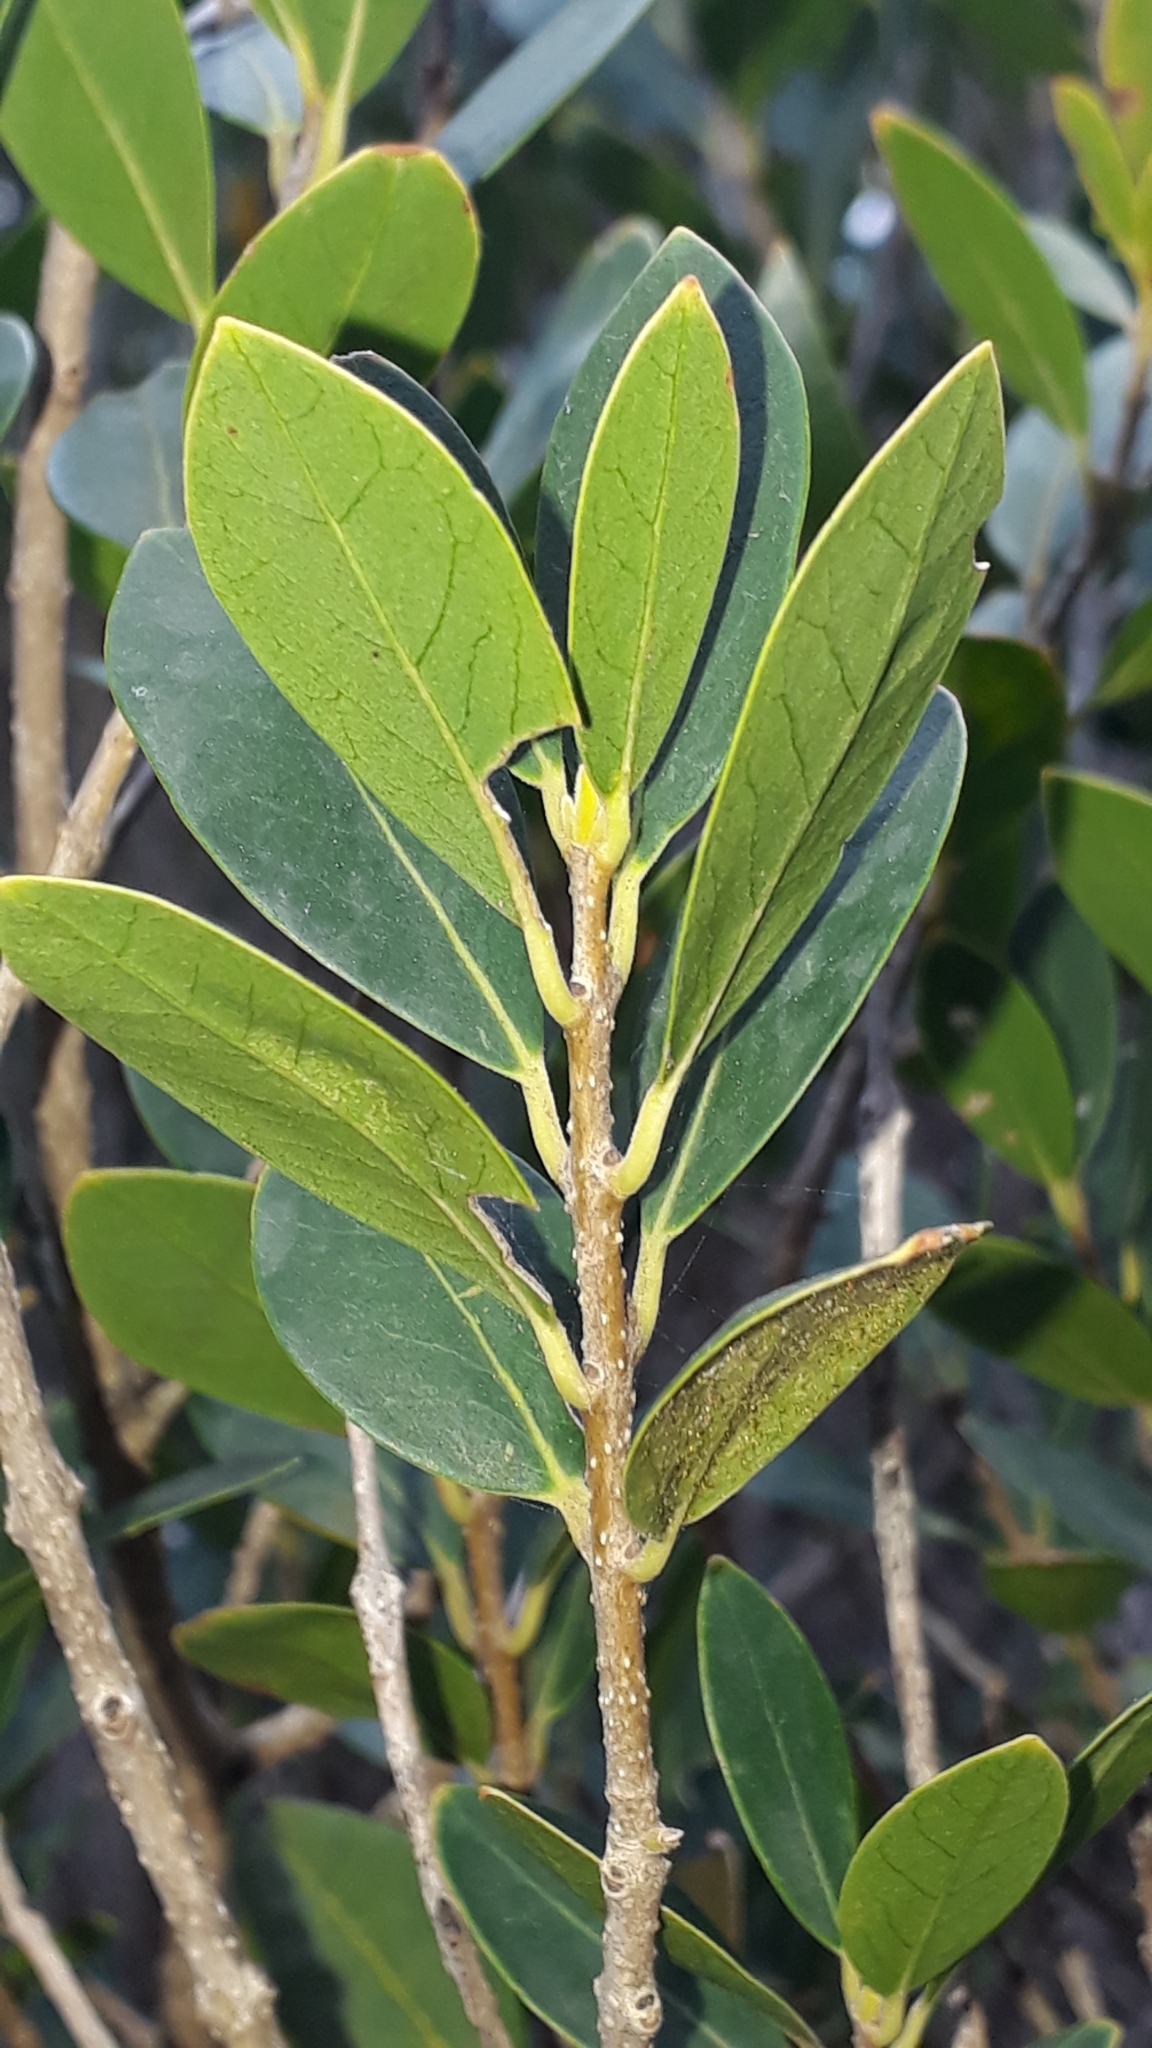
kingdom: Plantae
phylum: Tracheophyta
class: Magnoliopsida
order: Lamiales
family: Oleaceae
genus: Phillyrea
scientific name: Phillyrea latifolia
